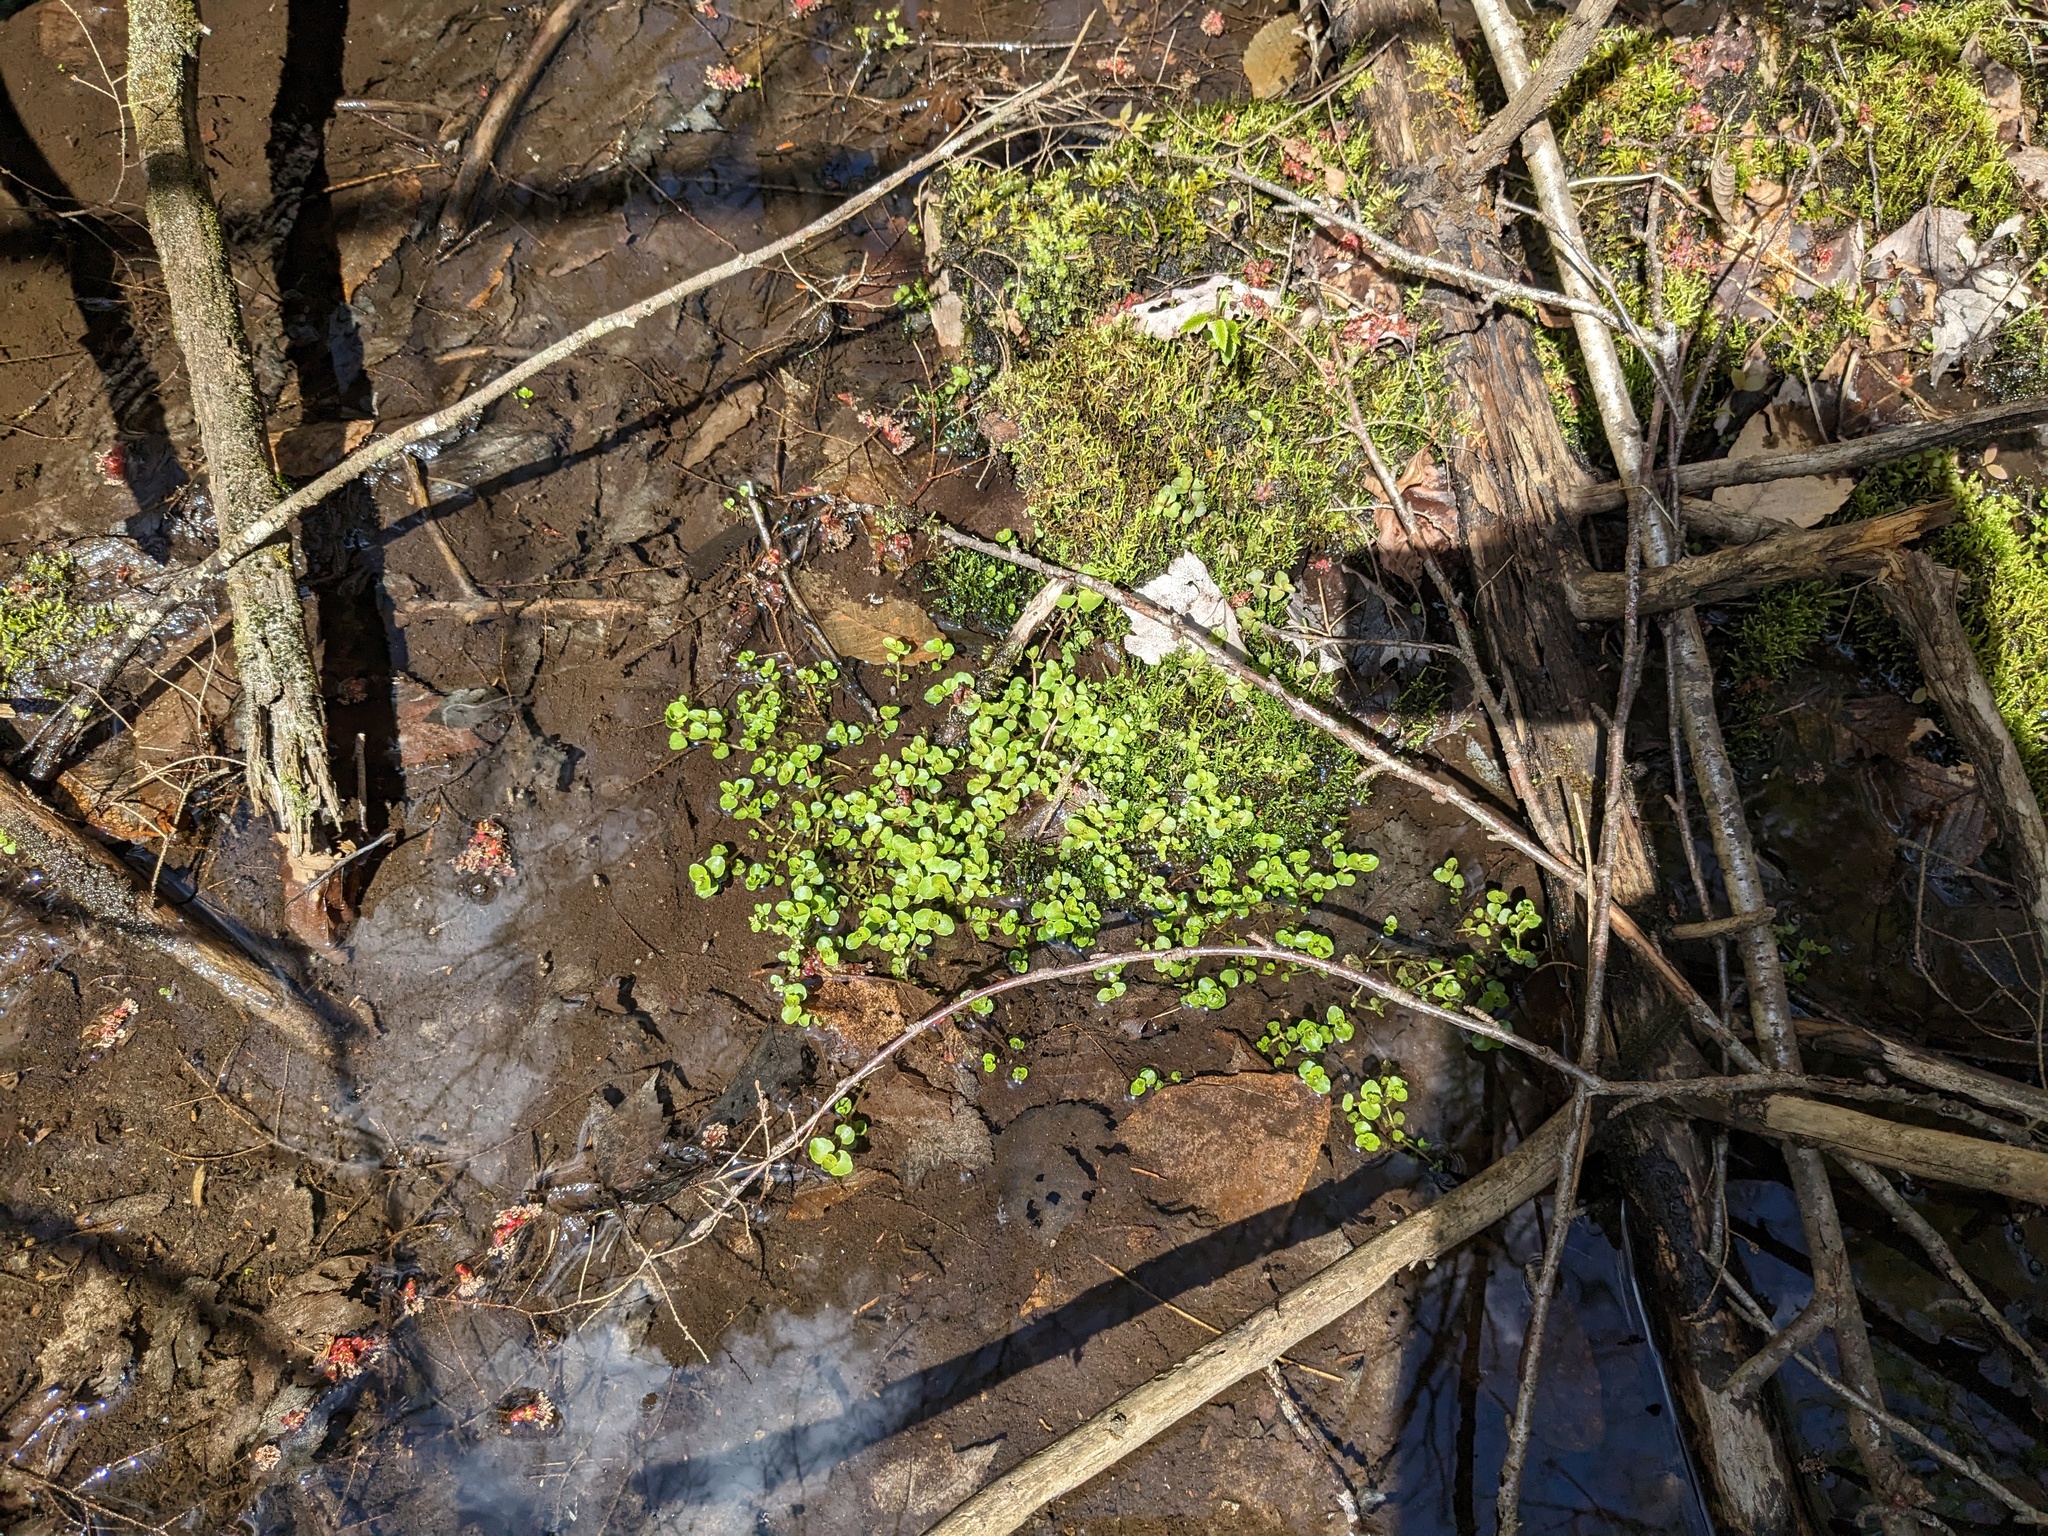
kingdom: Plantae
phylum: Tracheophyta
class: Magnoliopsida
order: Saxifragales
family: Saxifragaceae
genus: Chrysosplenium
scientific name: Chrysosplenium americanum
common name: American golden-saxifrage
